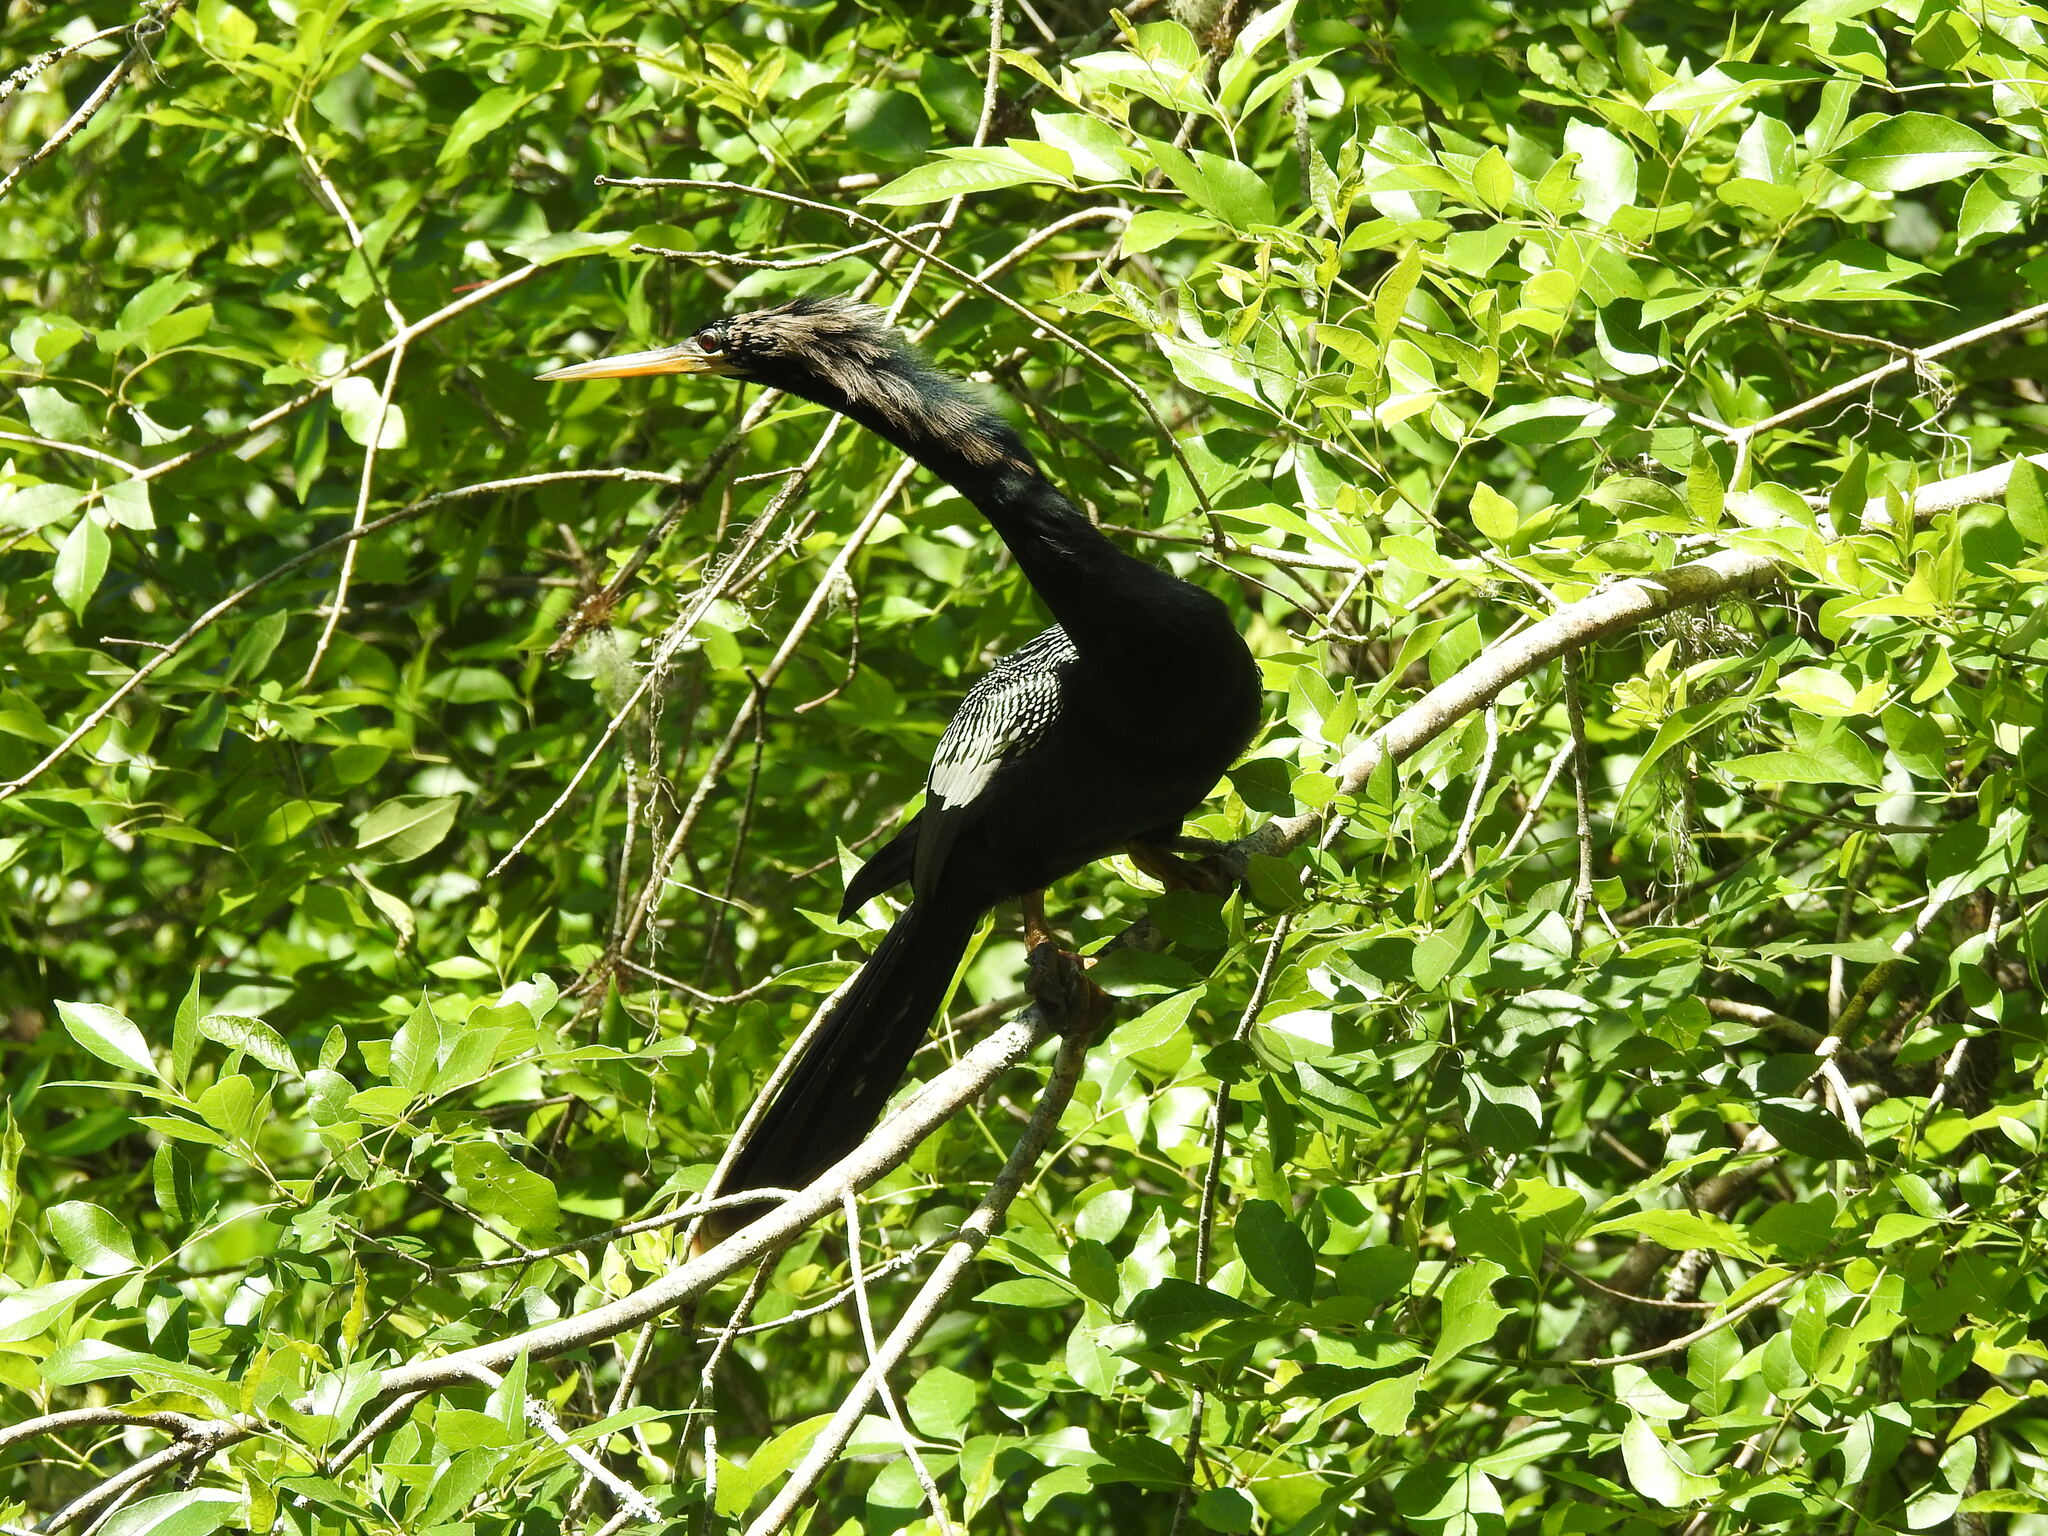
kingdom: Animalia
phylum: Chordata
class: Aves
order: Suliformes
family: Anhingidae
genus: Anhinga
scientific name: Anhinga anhinga
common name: Anhinga
